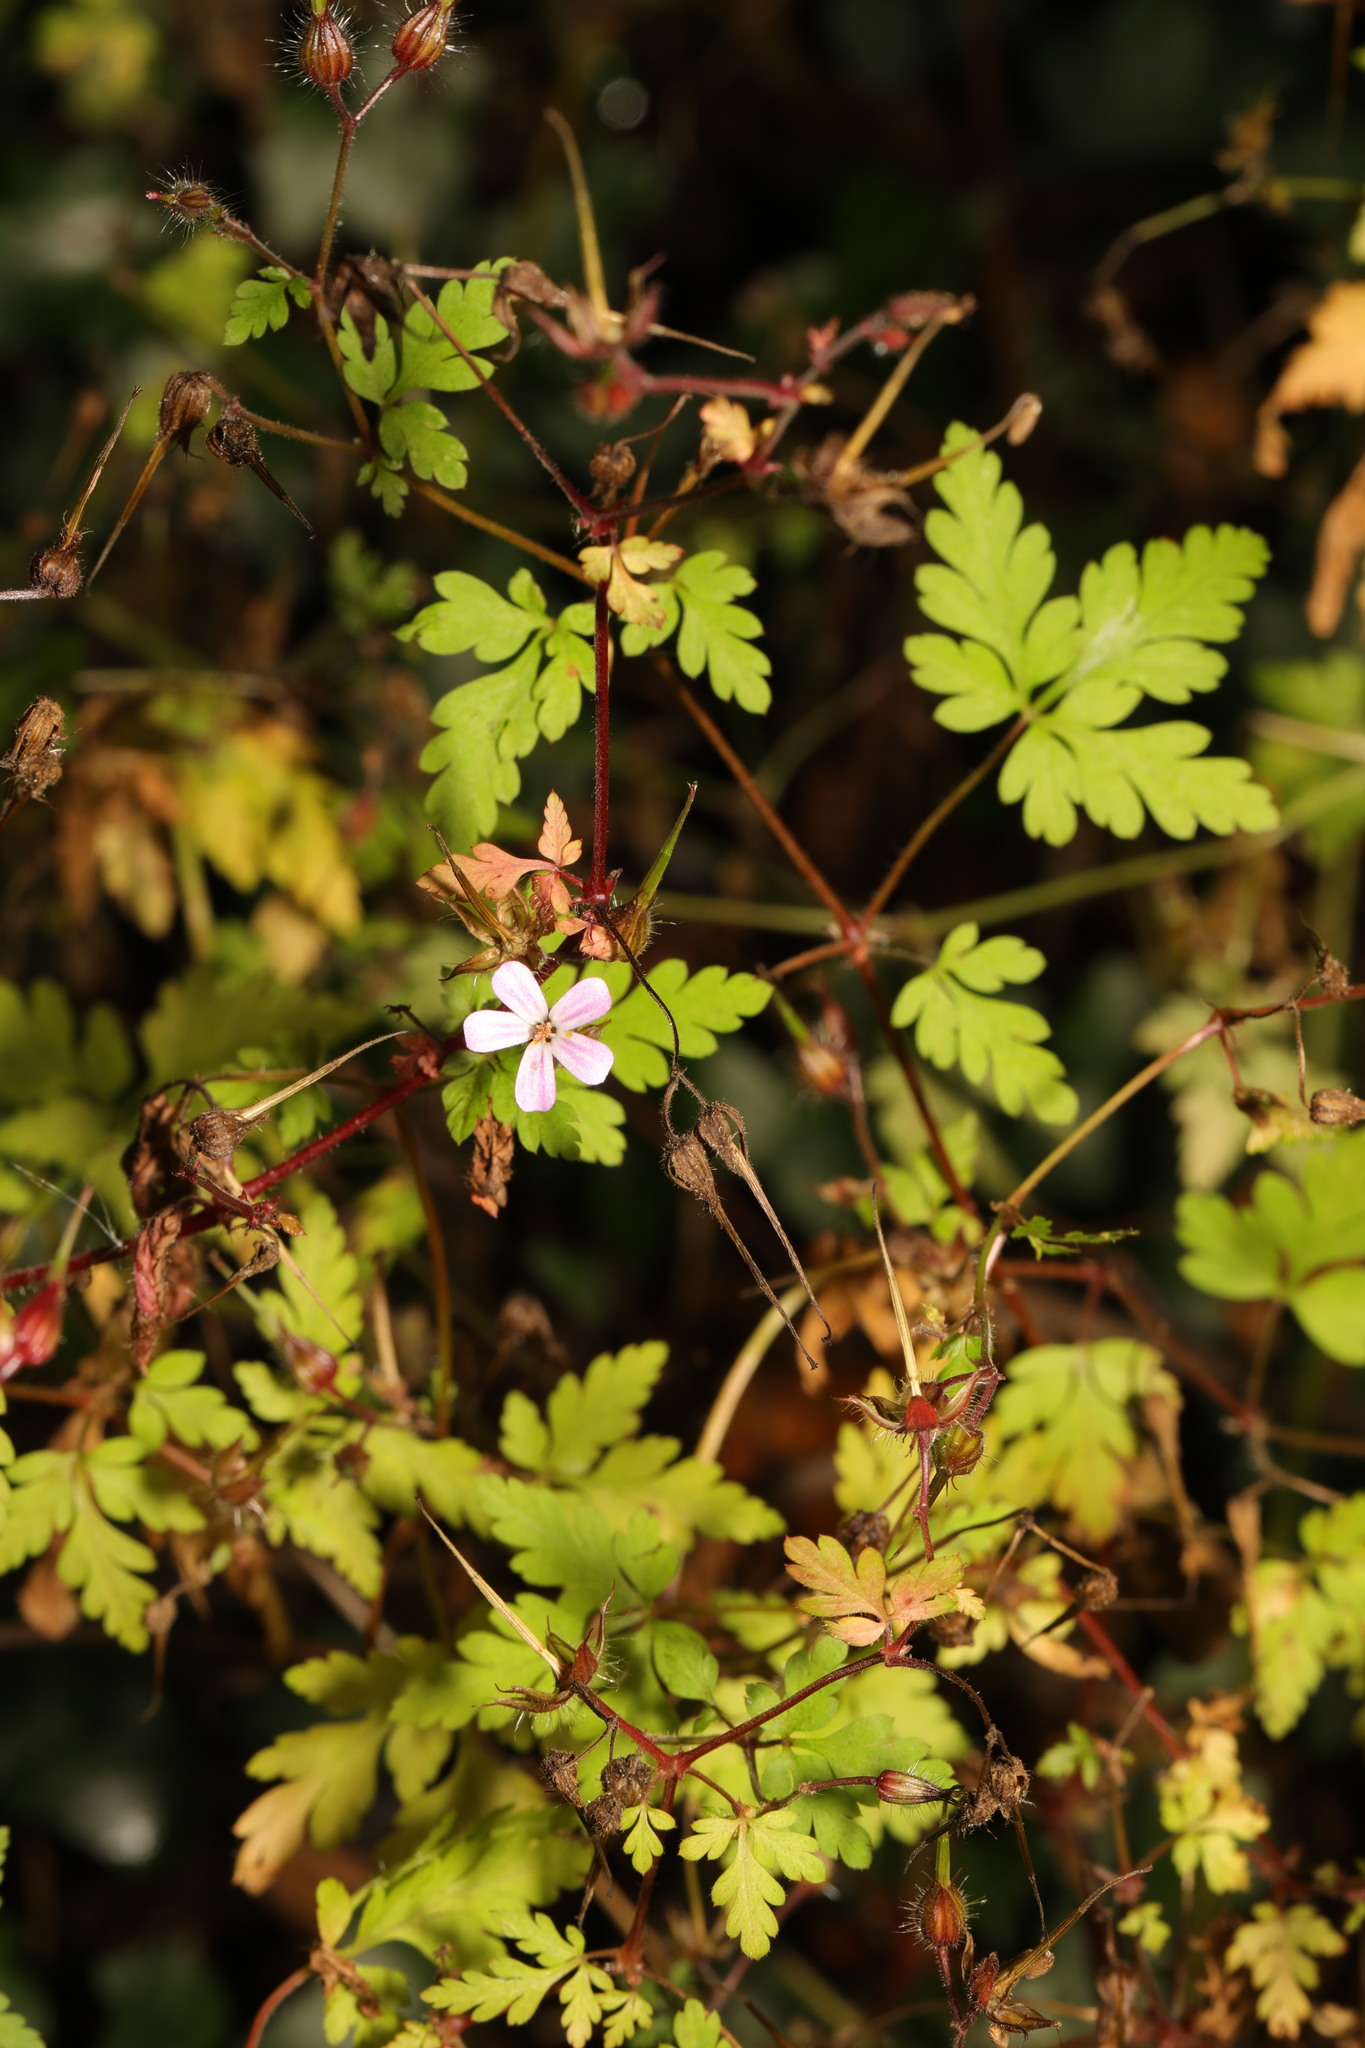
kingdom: Plantae
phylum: Tracheophyta
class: Magnoliopsida
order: Geraniales
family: Geraniaceae
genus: Geranium
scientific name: Geranium robertianum
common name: Herb-robert
